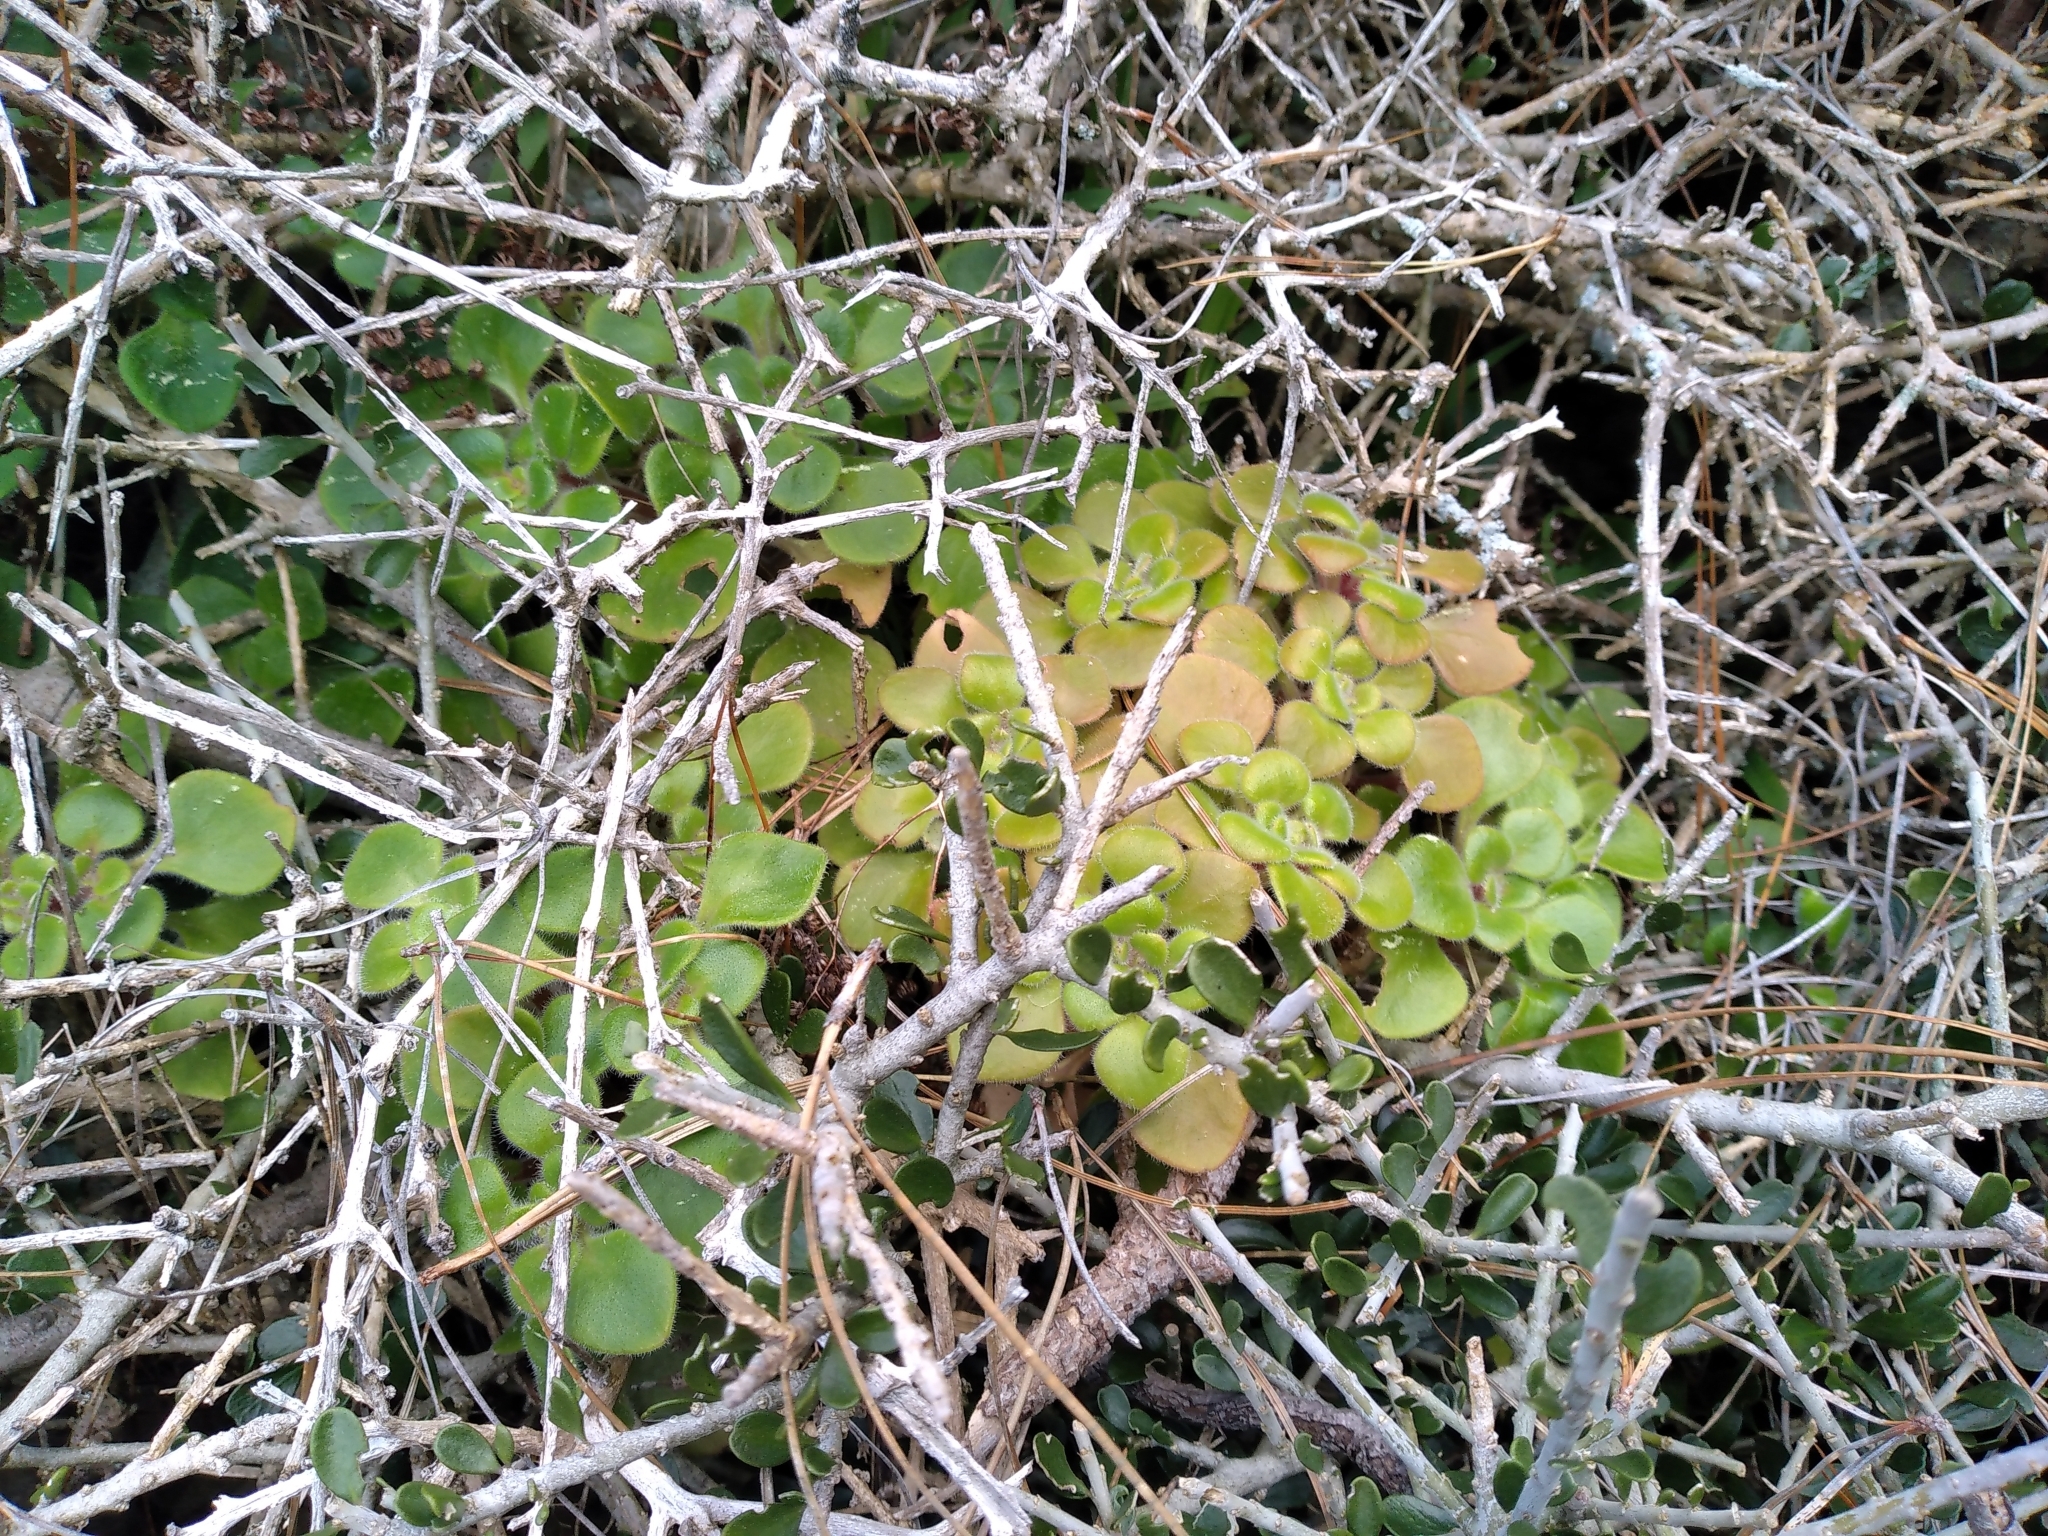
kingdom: Plantae
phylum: Tracheophyta
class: Magnoliopsida
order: Saxifragales
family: Crassulaceae
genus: Aichryson
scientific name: Aichryson laxum
